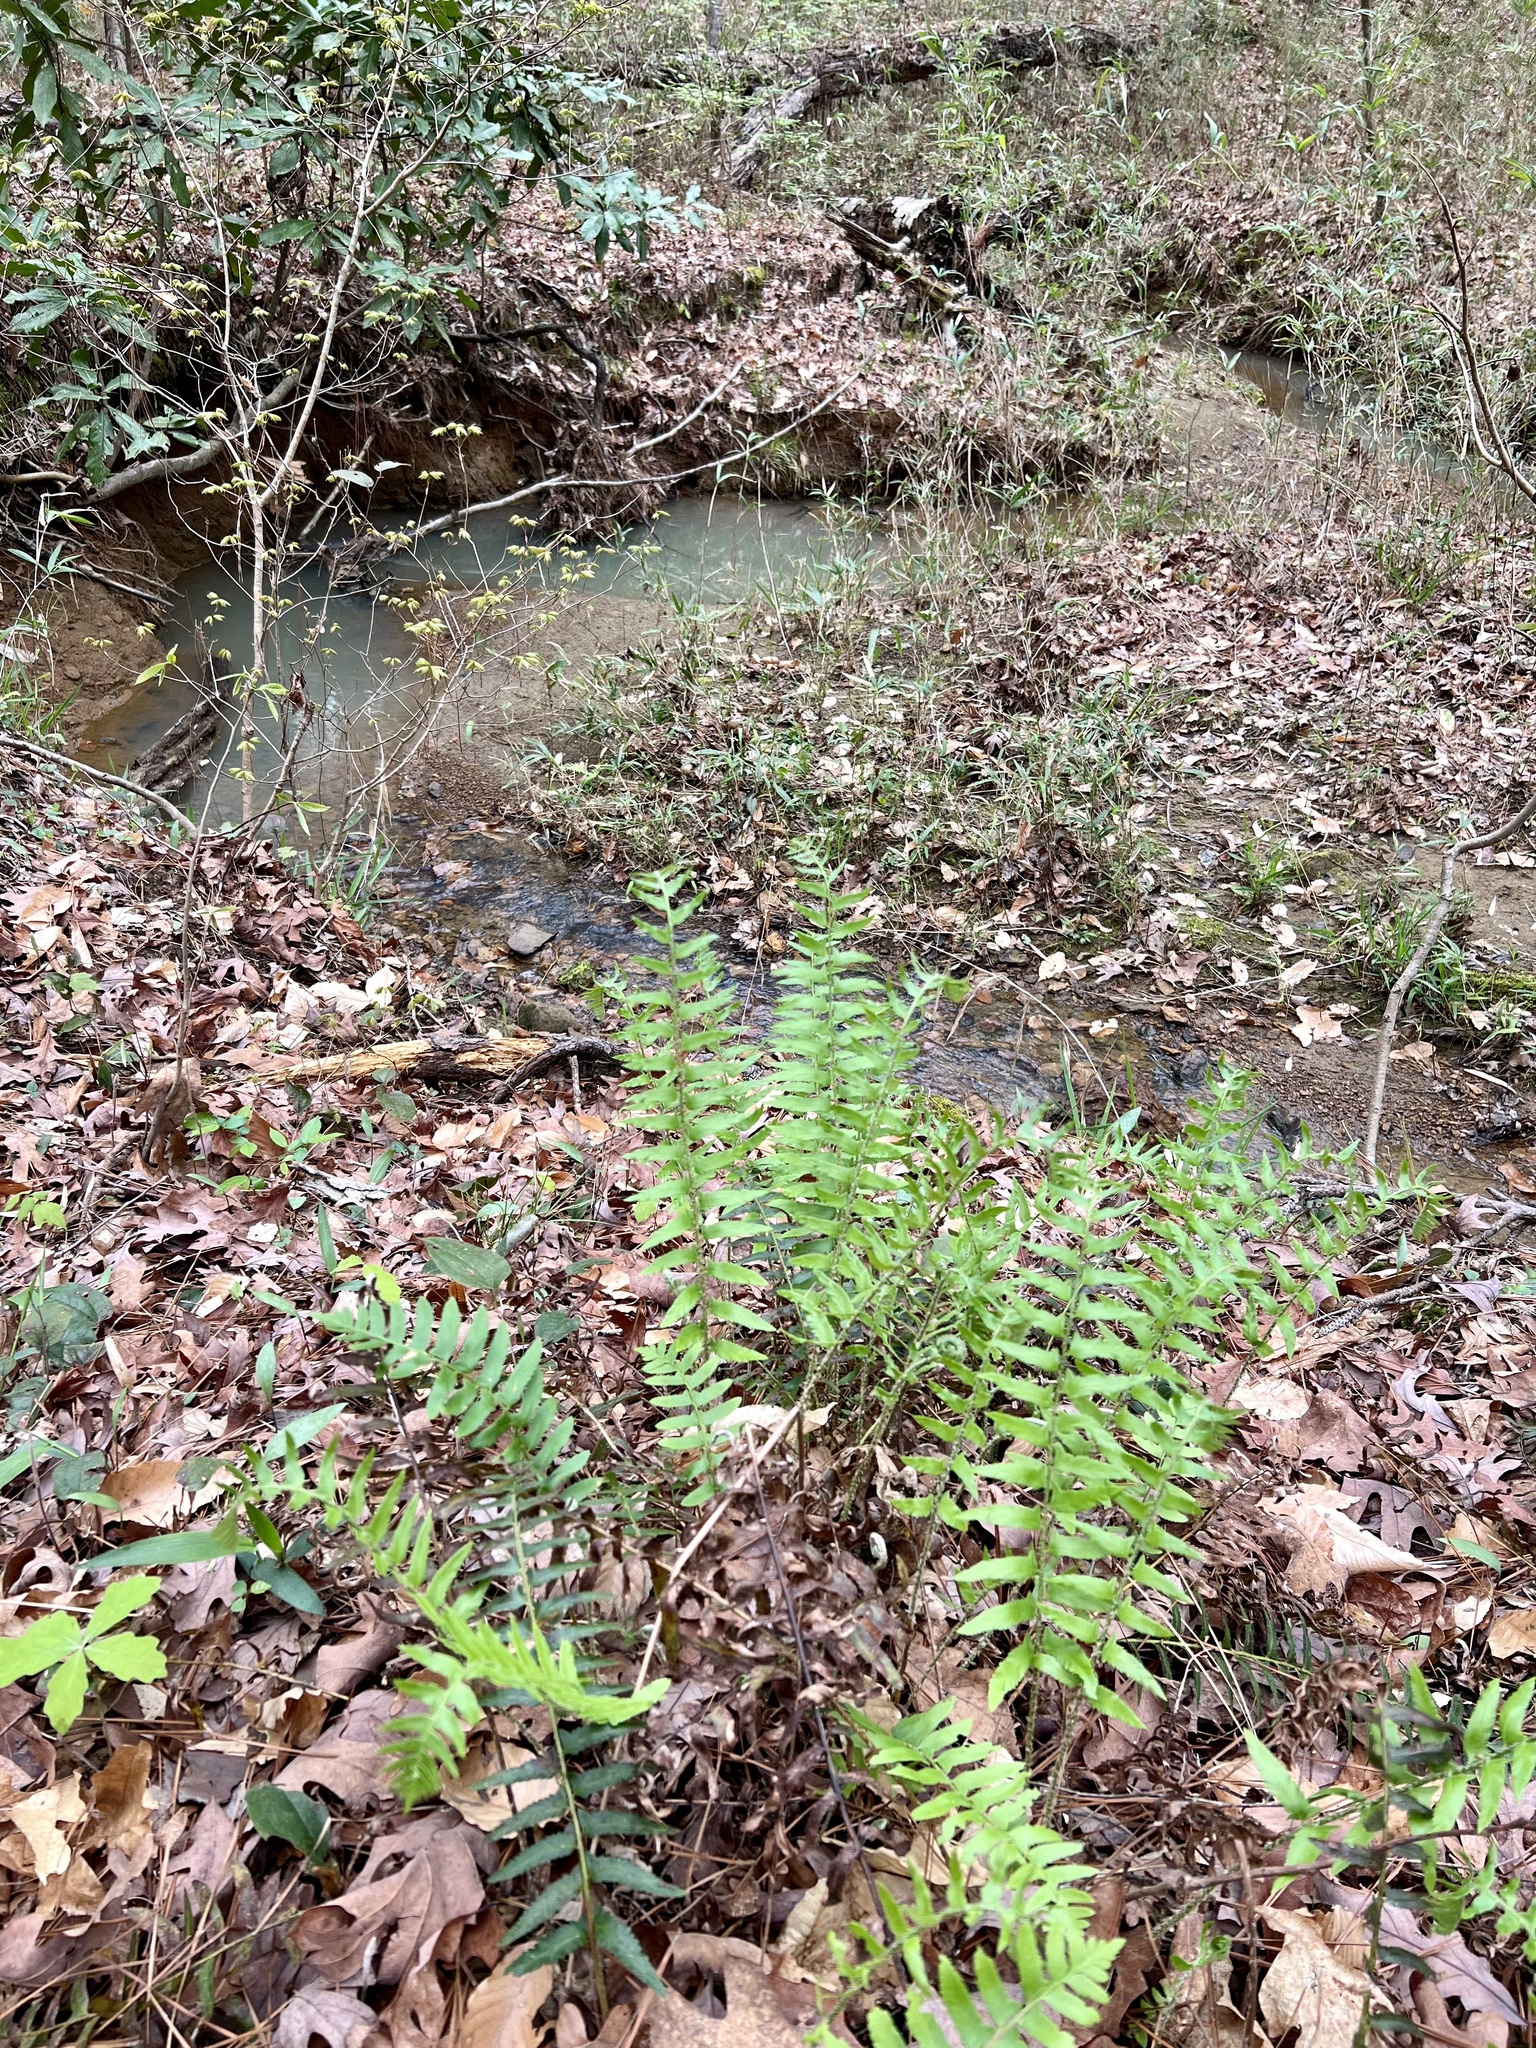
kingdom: Plantae
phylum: Tracheophyta
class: Polypodiopsida
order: Polypodiales
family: Dryopteridaceae
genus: Polystichum
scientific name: Polystichum acrostichoides
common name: Christmas fern
